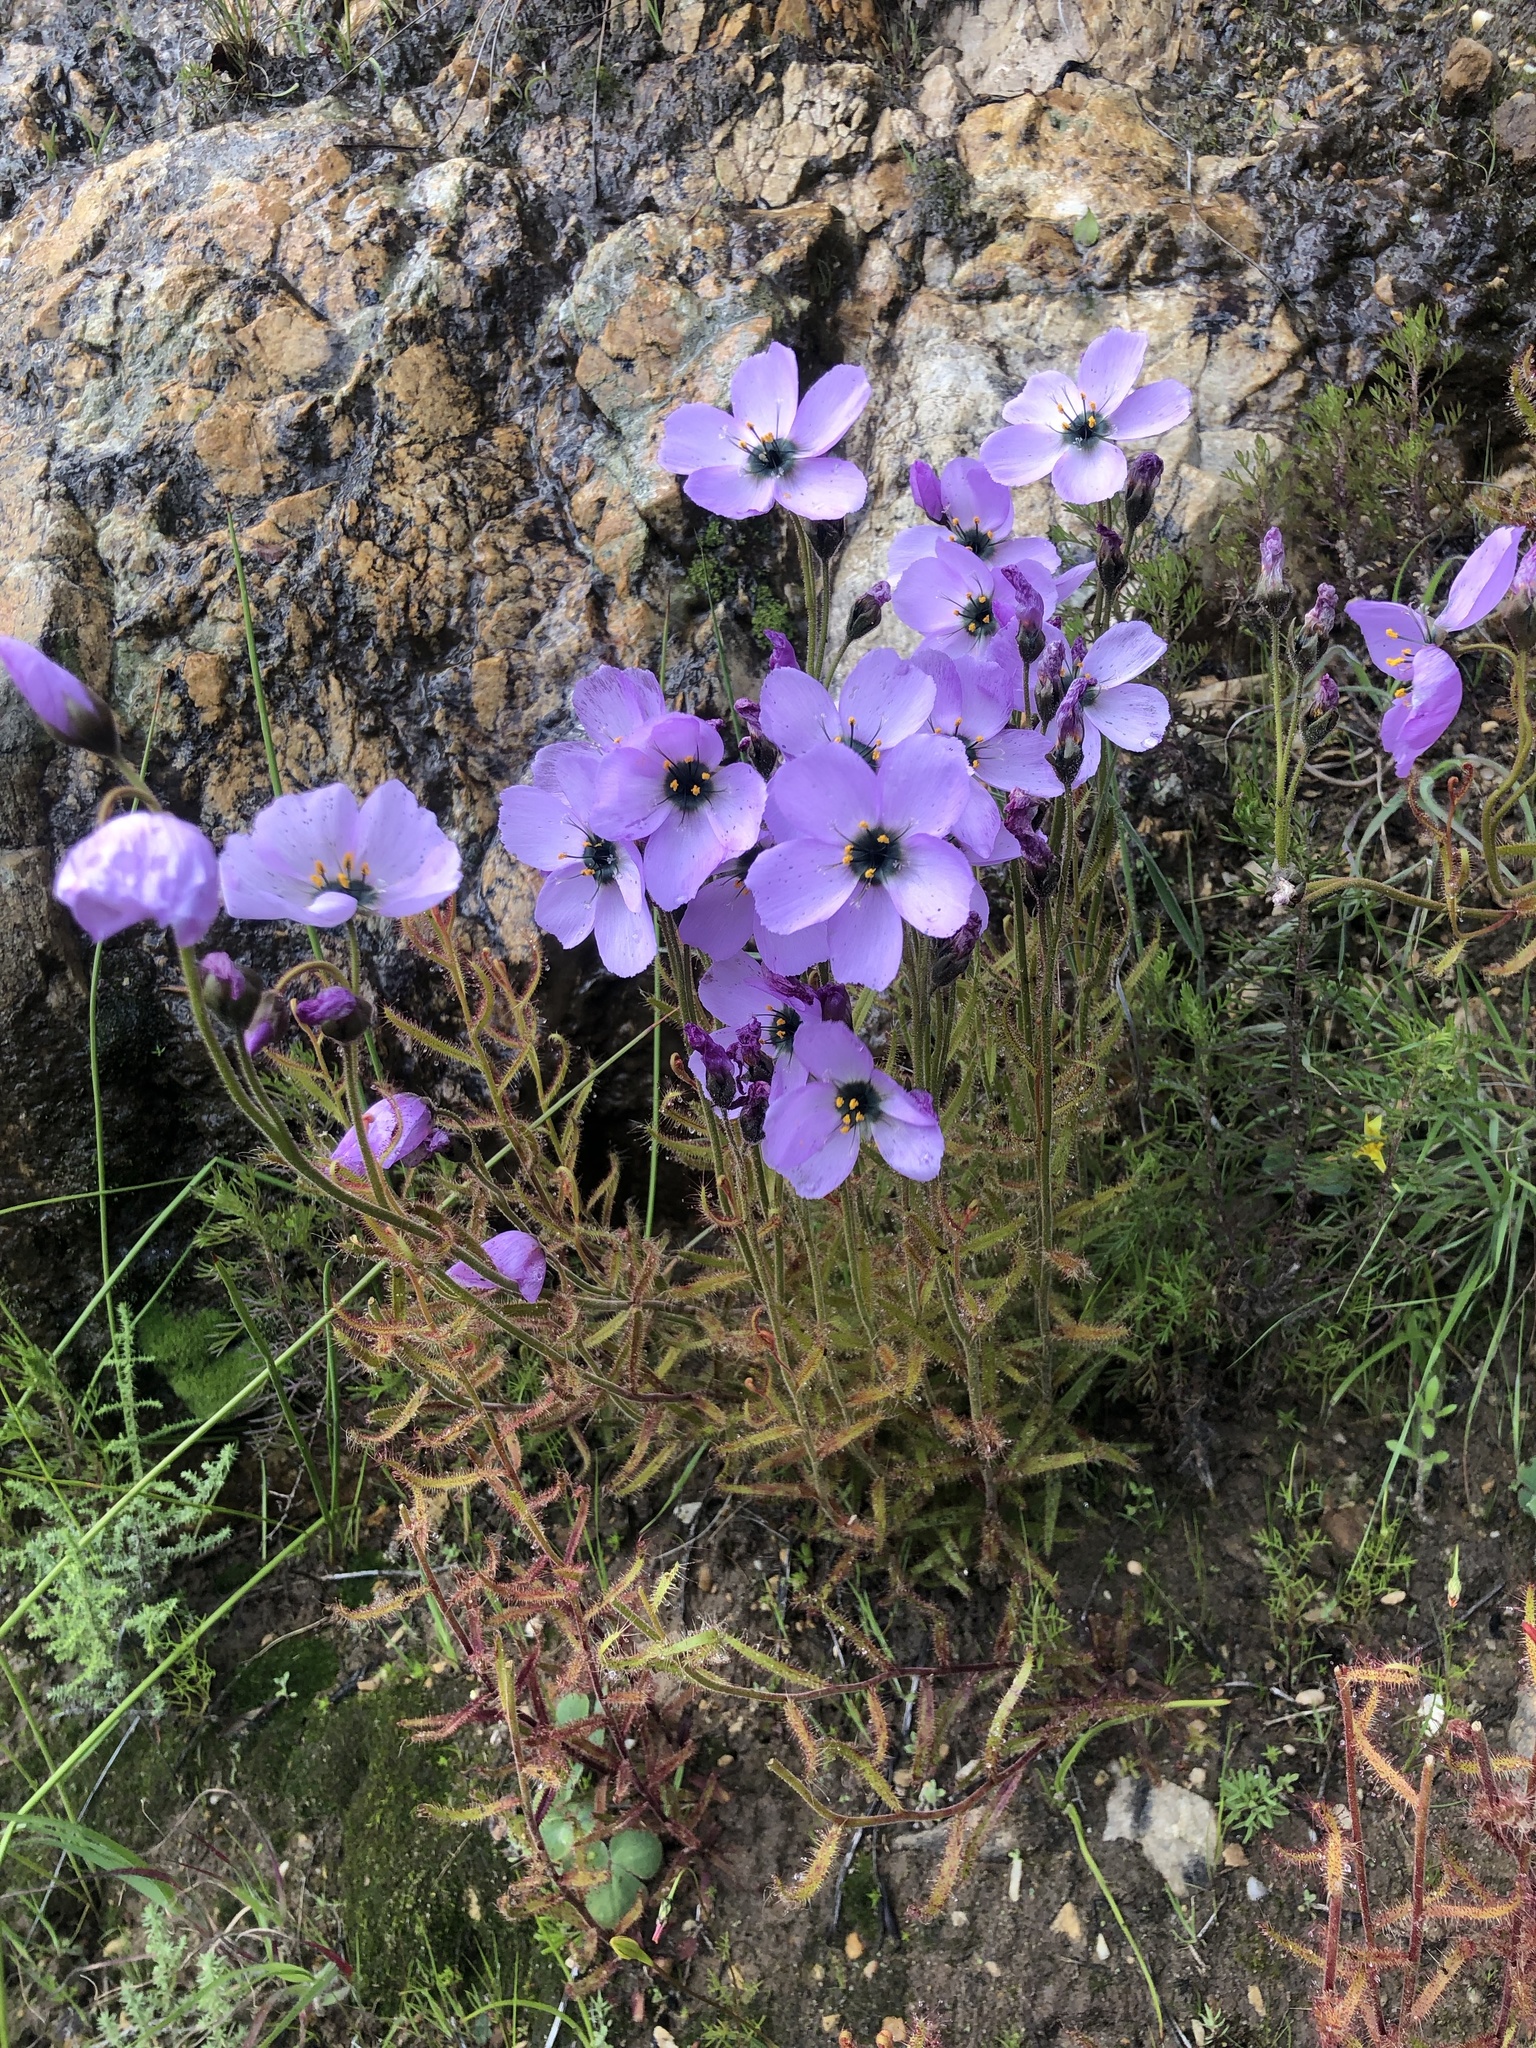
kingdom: Plantae
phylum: Tracheophyta
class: Magnoliopsida
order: Caryophyllales
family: Droseraceae
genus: Drosera
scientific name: Drosera cistiflora
